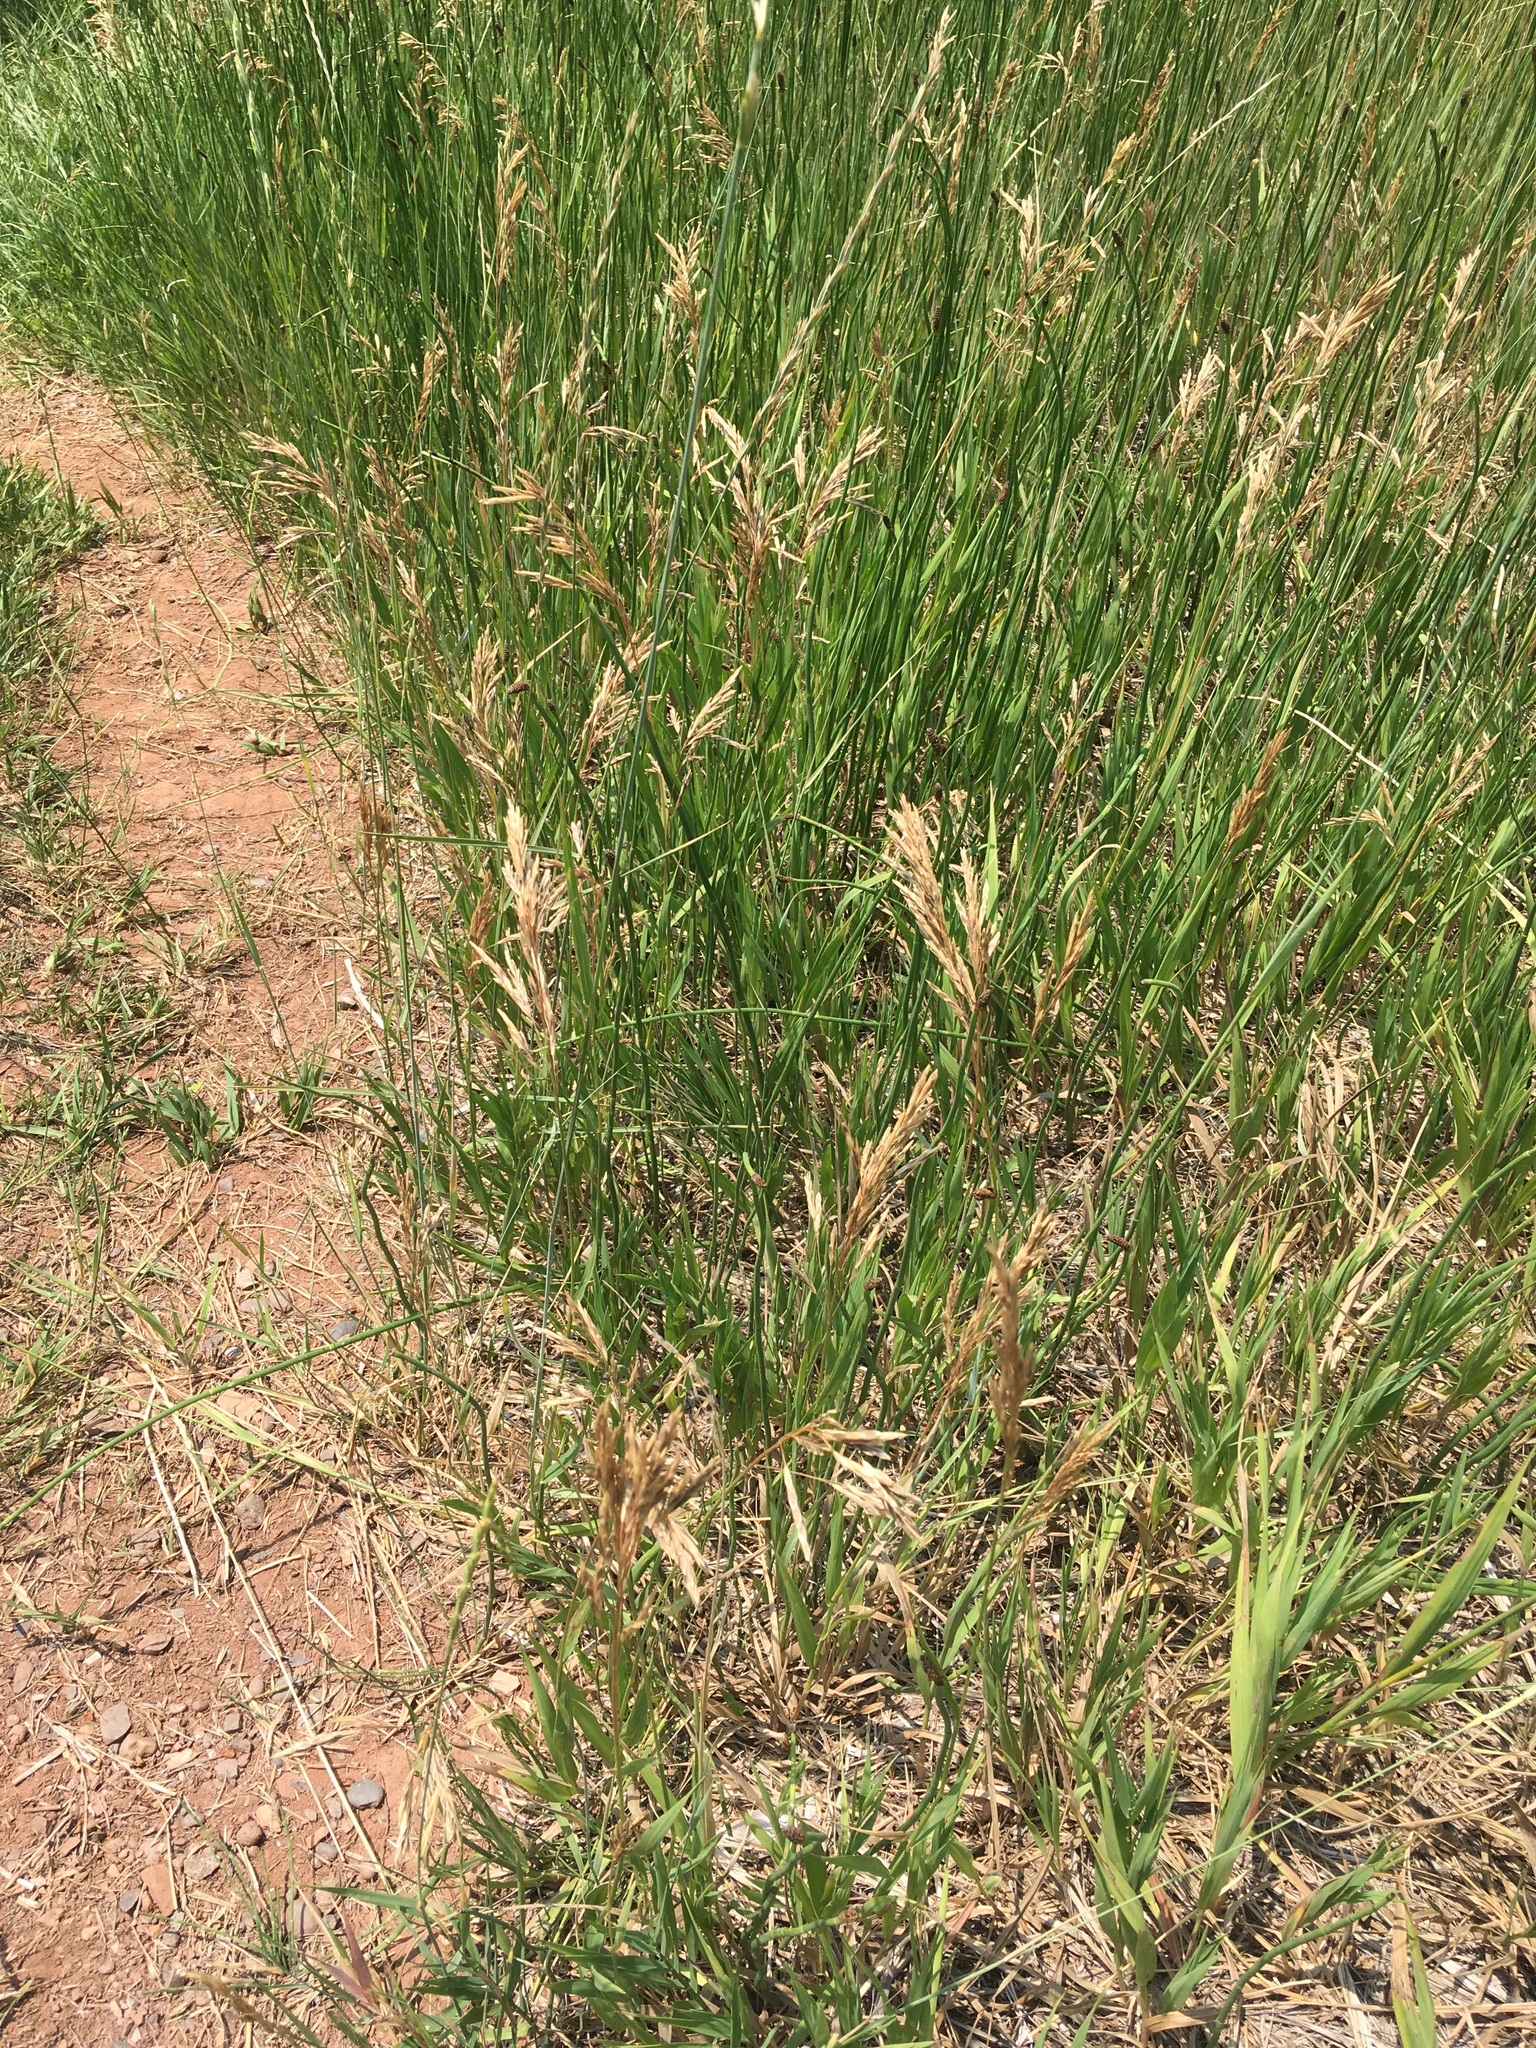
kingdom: Plantae
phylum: Tracheophyta
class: Liliopsida
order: Poales
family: Poaceae
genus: Bromus
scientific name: Bromus inermis
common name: Smooth brome
